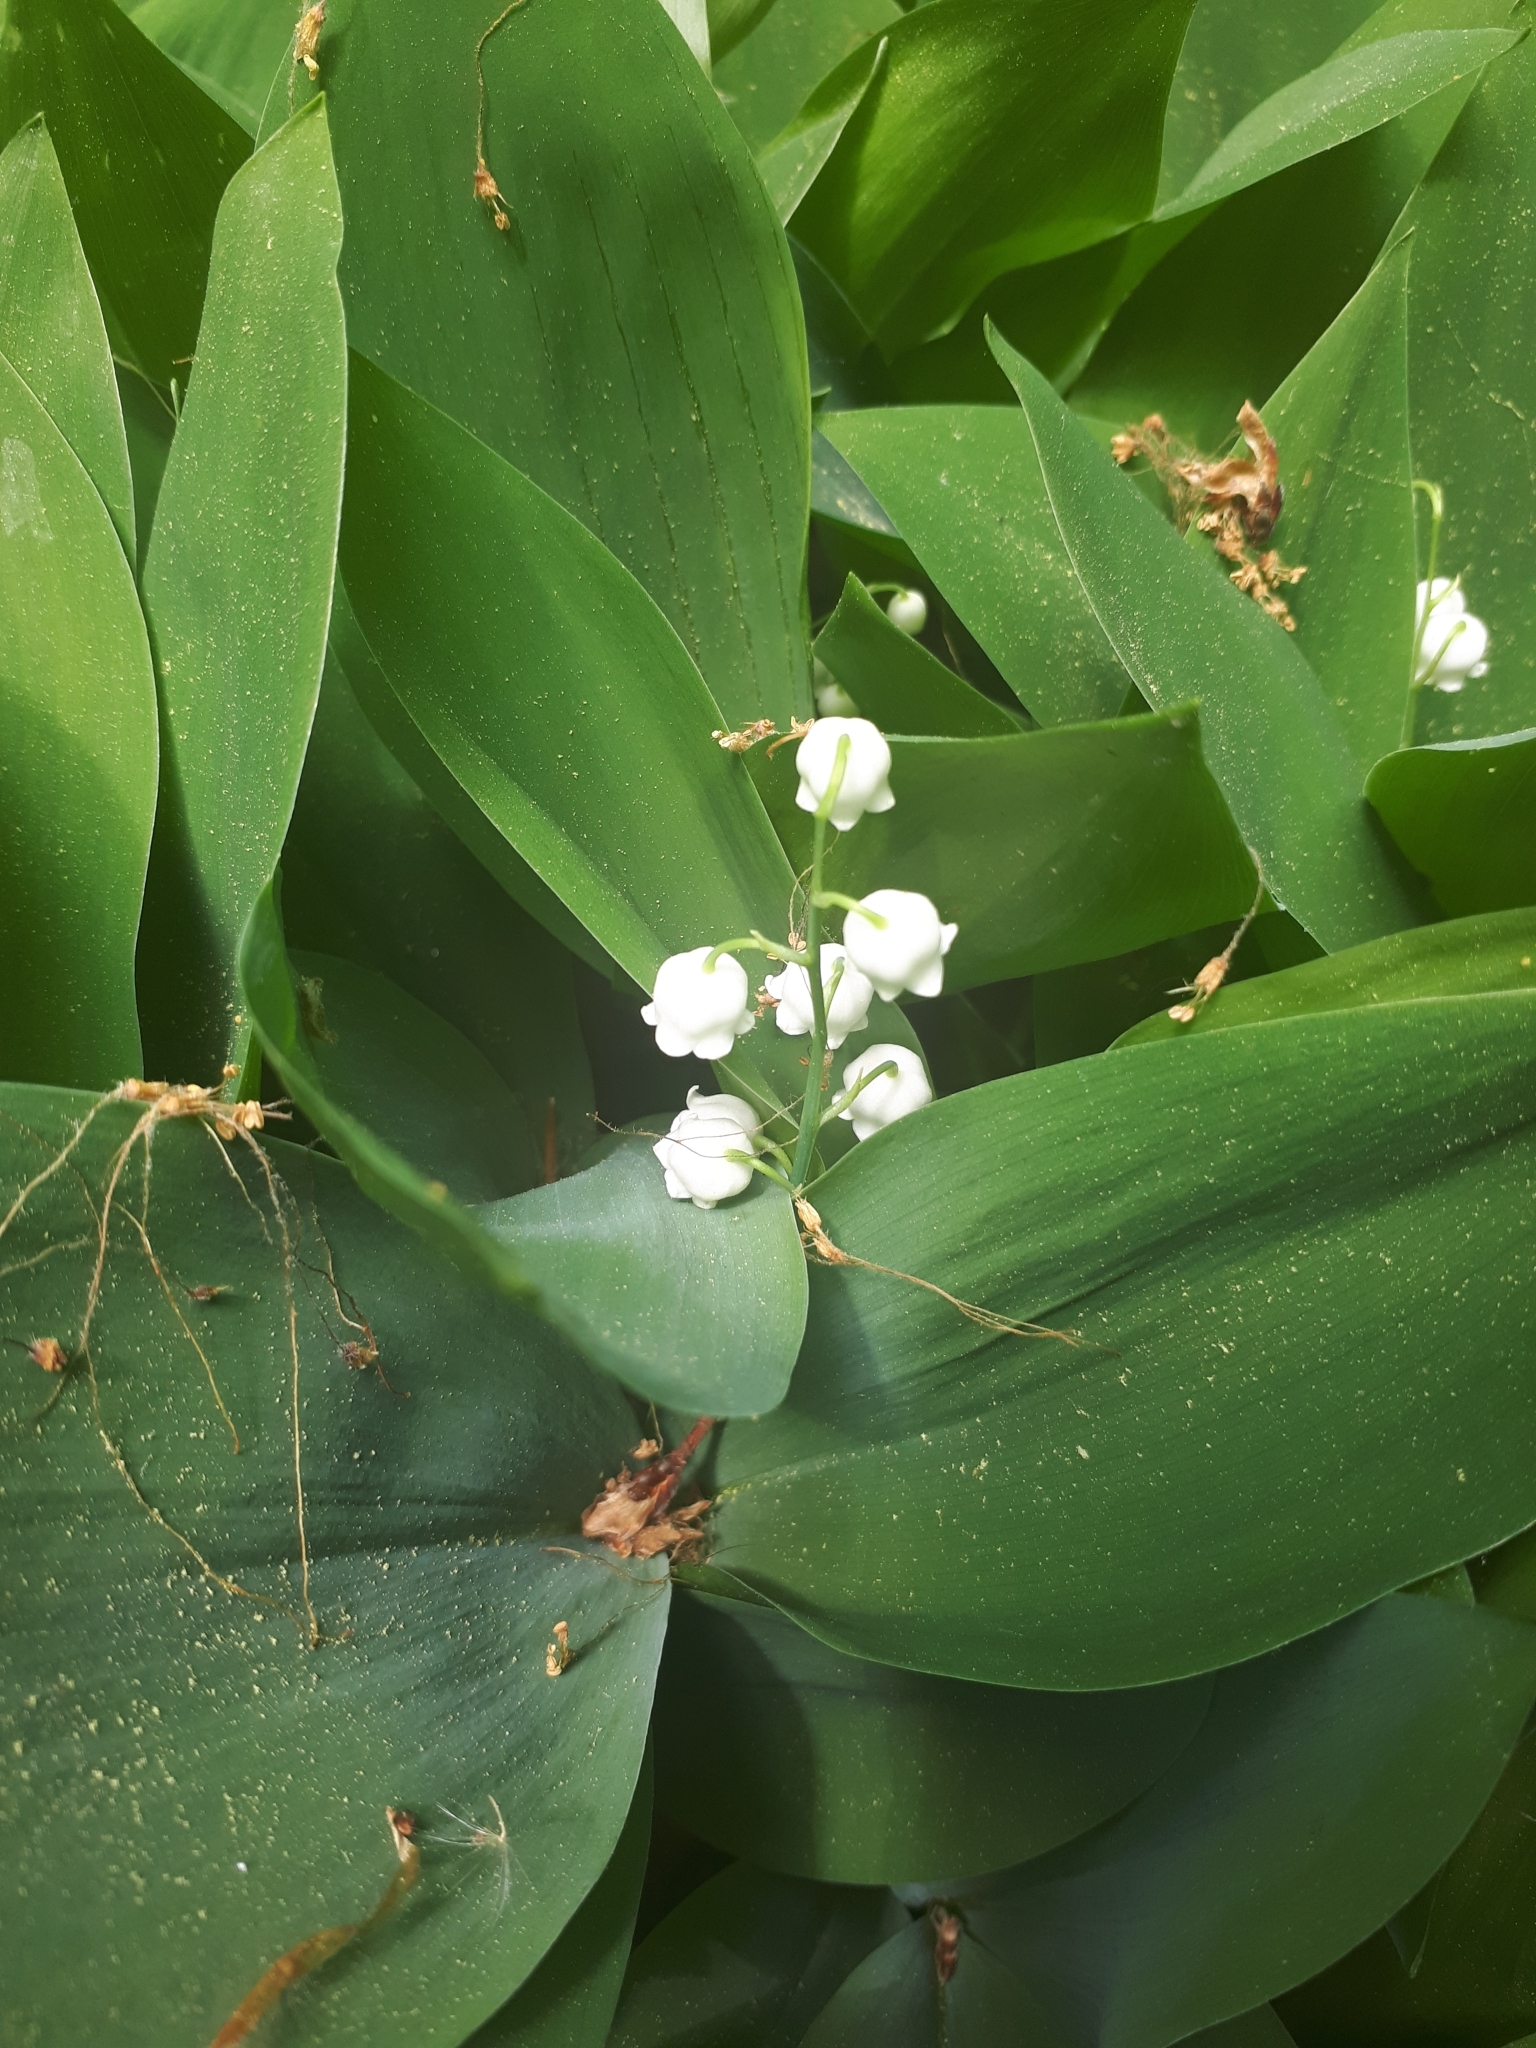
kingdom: Plantae
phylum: Tracheophyta
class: Liliopsida
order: Asparagales
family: Asparagaceae
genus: Convallaria
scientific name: Convallaria majalis
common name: Lily-of-the-valley
